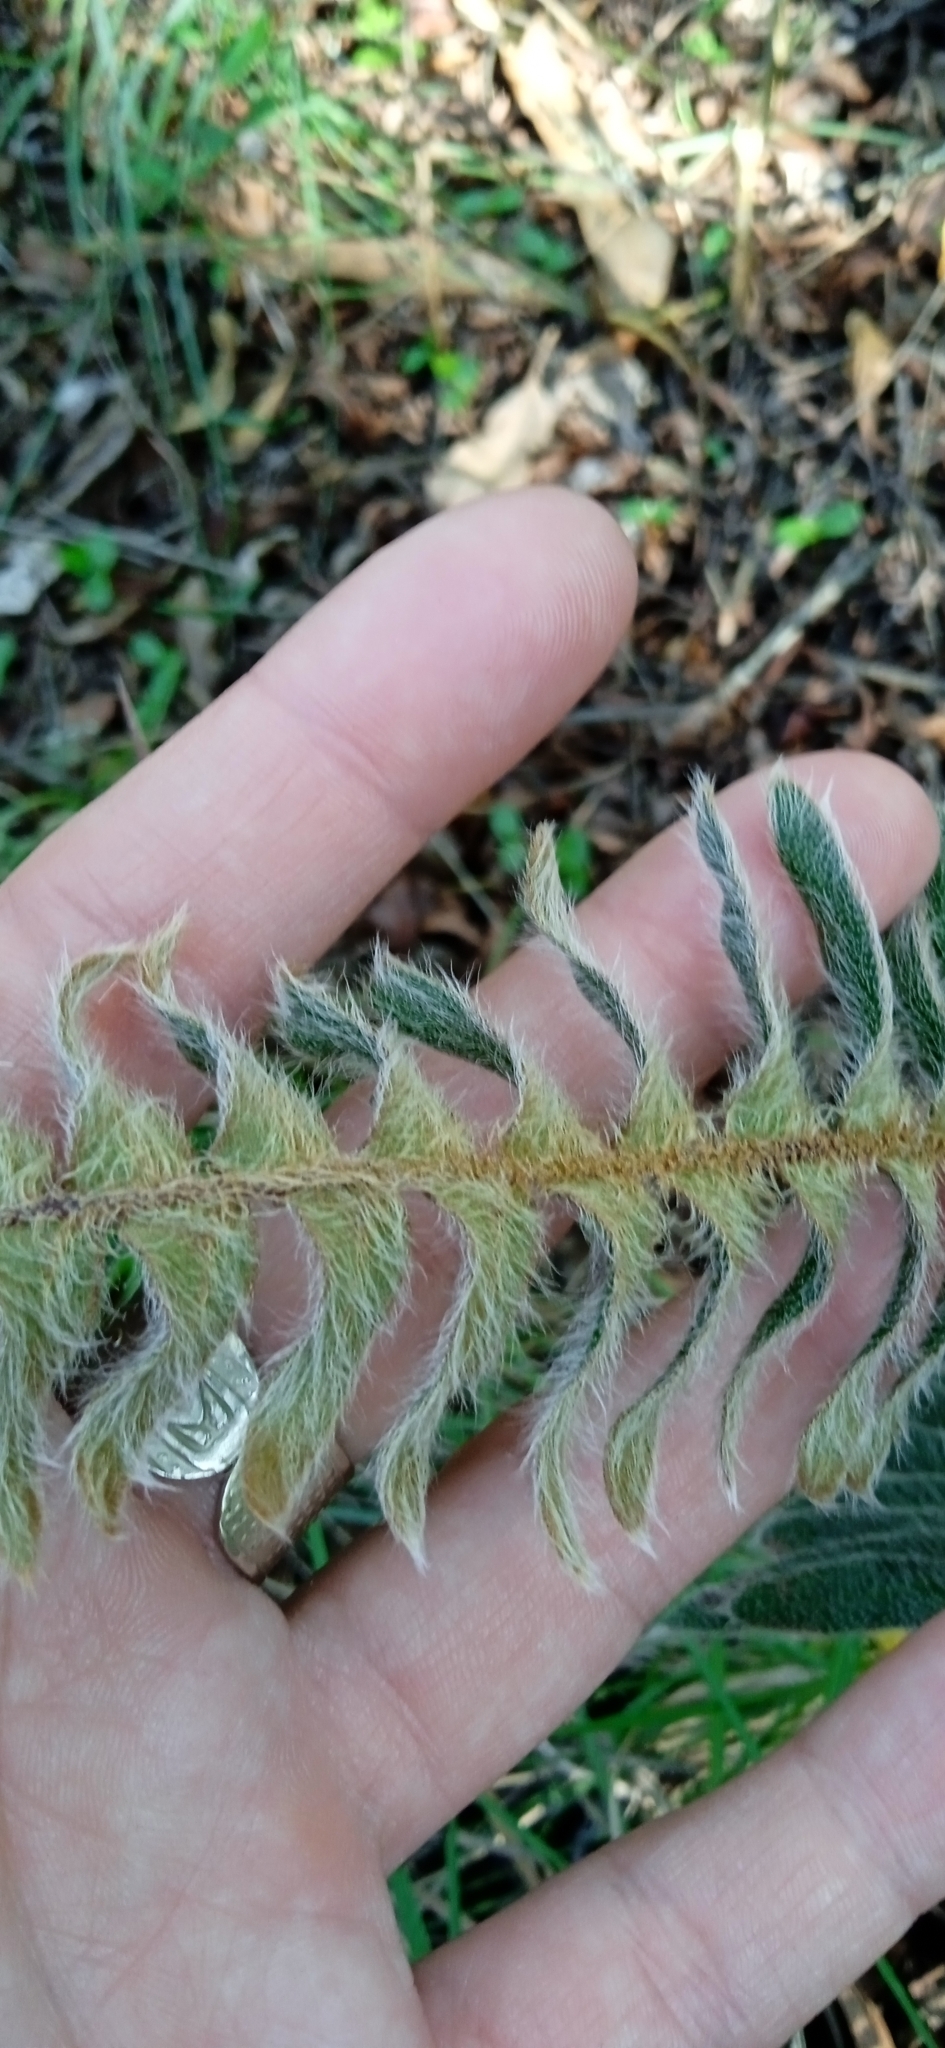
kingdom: Plantae
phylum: Tracheophyta
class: Polypodiopsida
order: Polypodiales
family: Polypodiaceae
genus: Pleopeltis
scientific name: Pleopeltis lepidopteris
